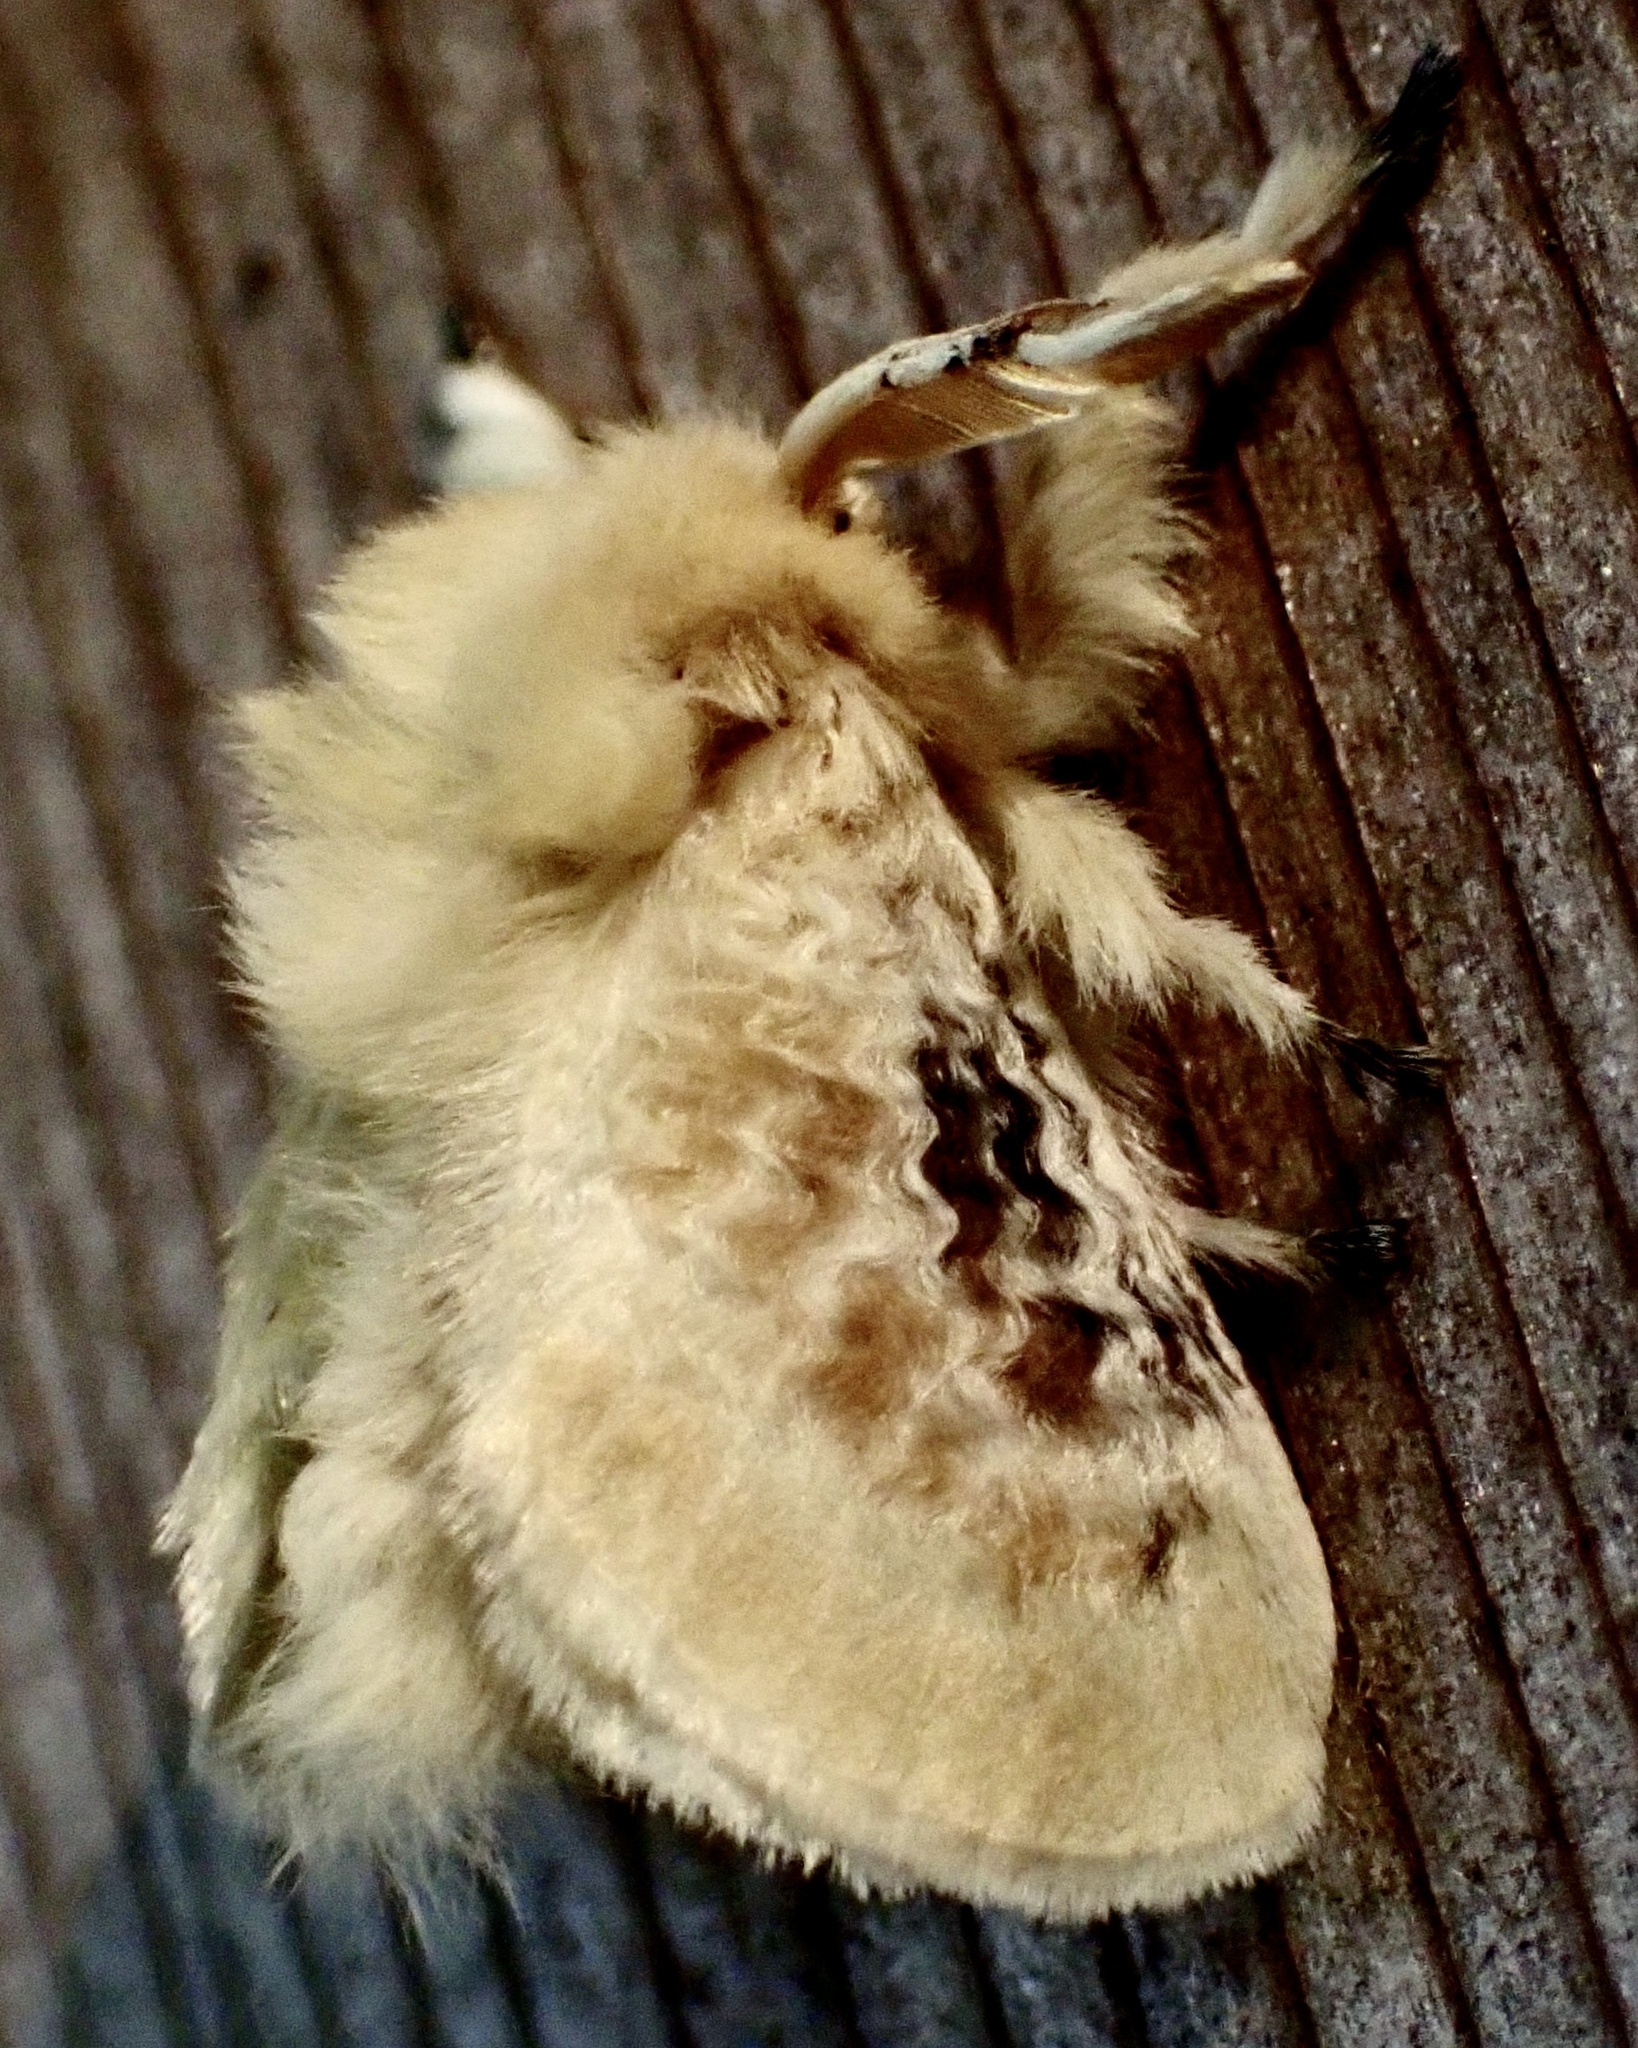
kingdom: Animalia
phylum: Arthropoda
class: Insecta
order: Lepidoptera
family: Megalopygidae
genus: Megalopyge
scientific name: Megalopyge crispata
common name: Black-waved flannel moth
